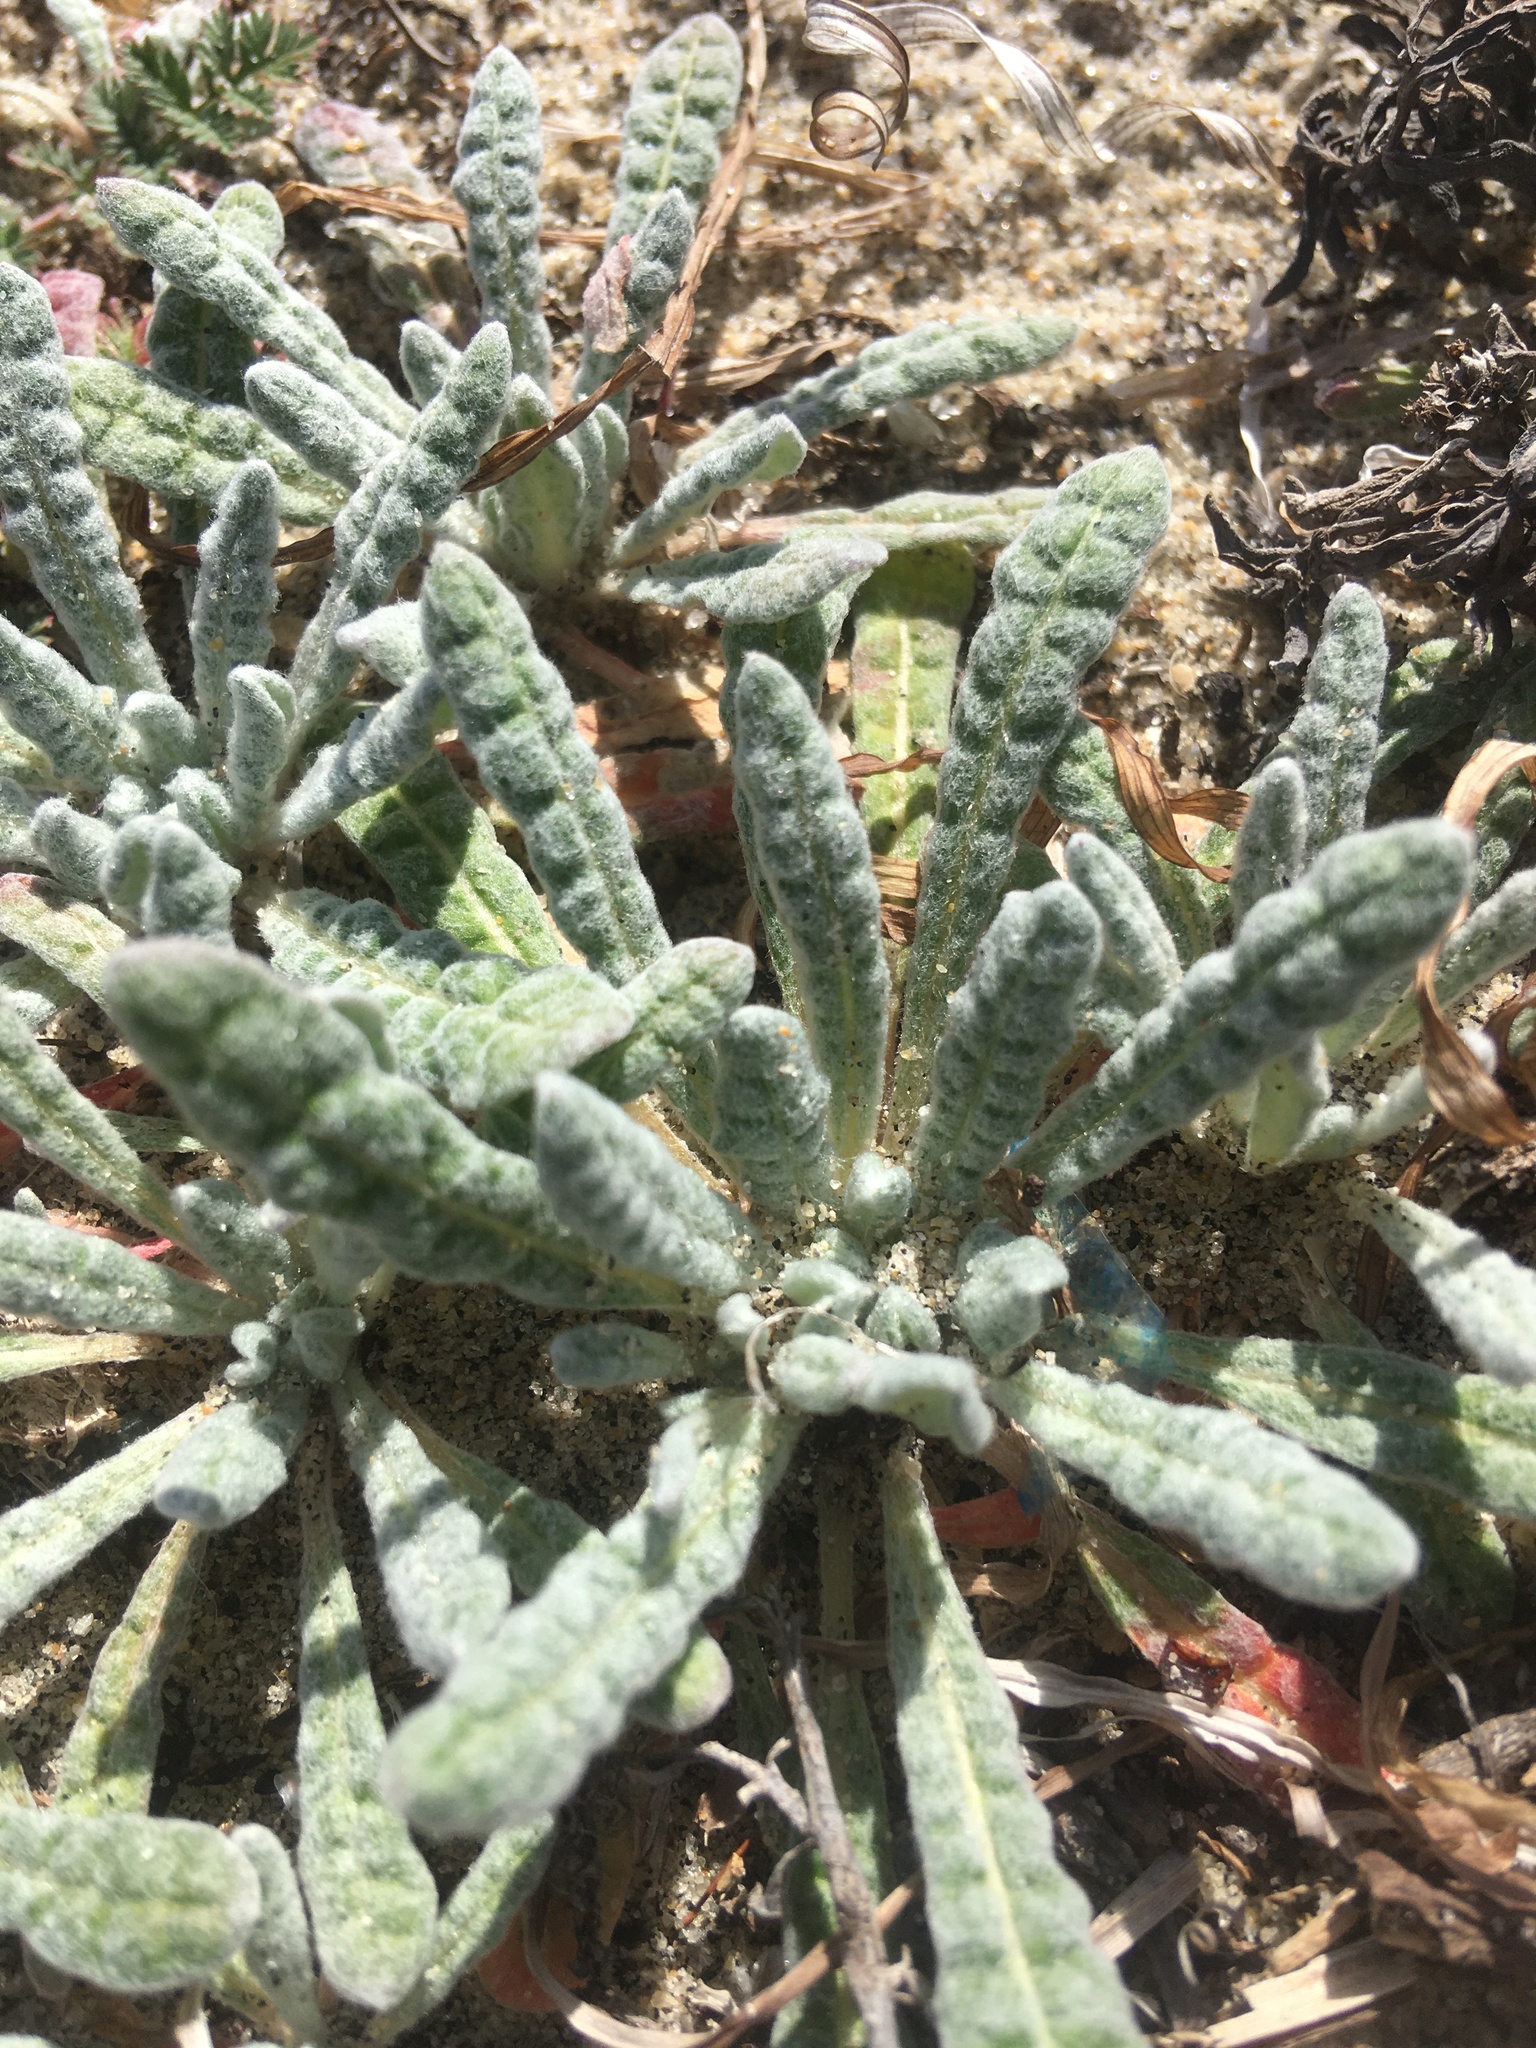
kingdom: Plantae
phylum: Tracheophyta
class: Magnoliopsida
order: Caryophyllales
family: Polygonaceae
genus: Nemacaulis
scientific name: Nemacaulis denudata
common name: Woolly-heads
